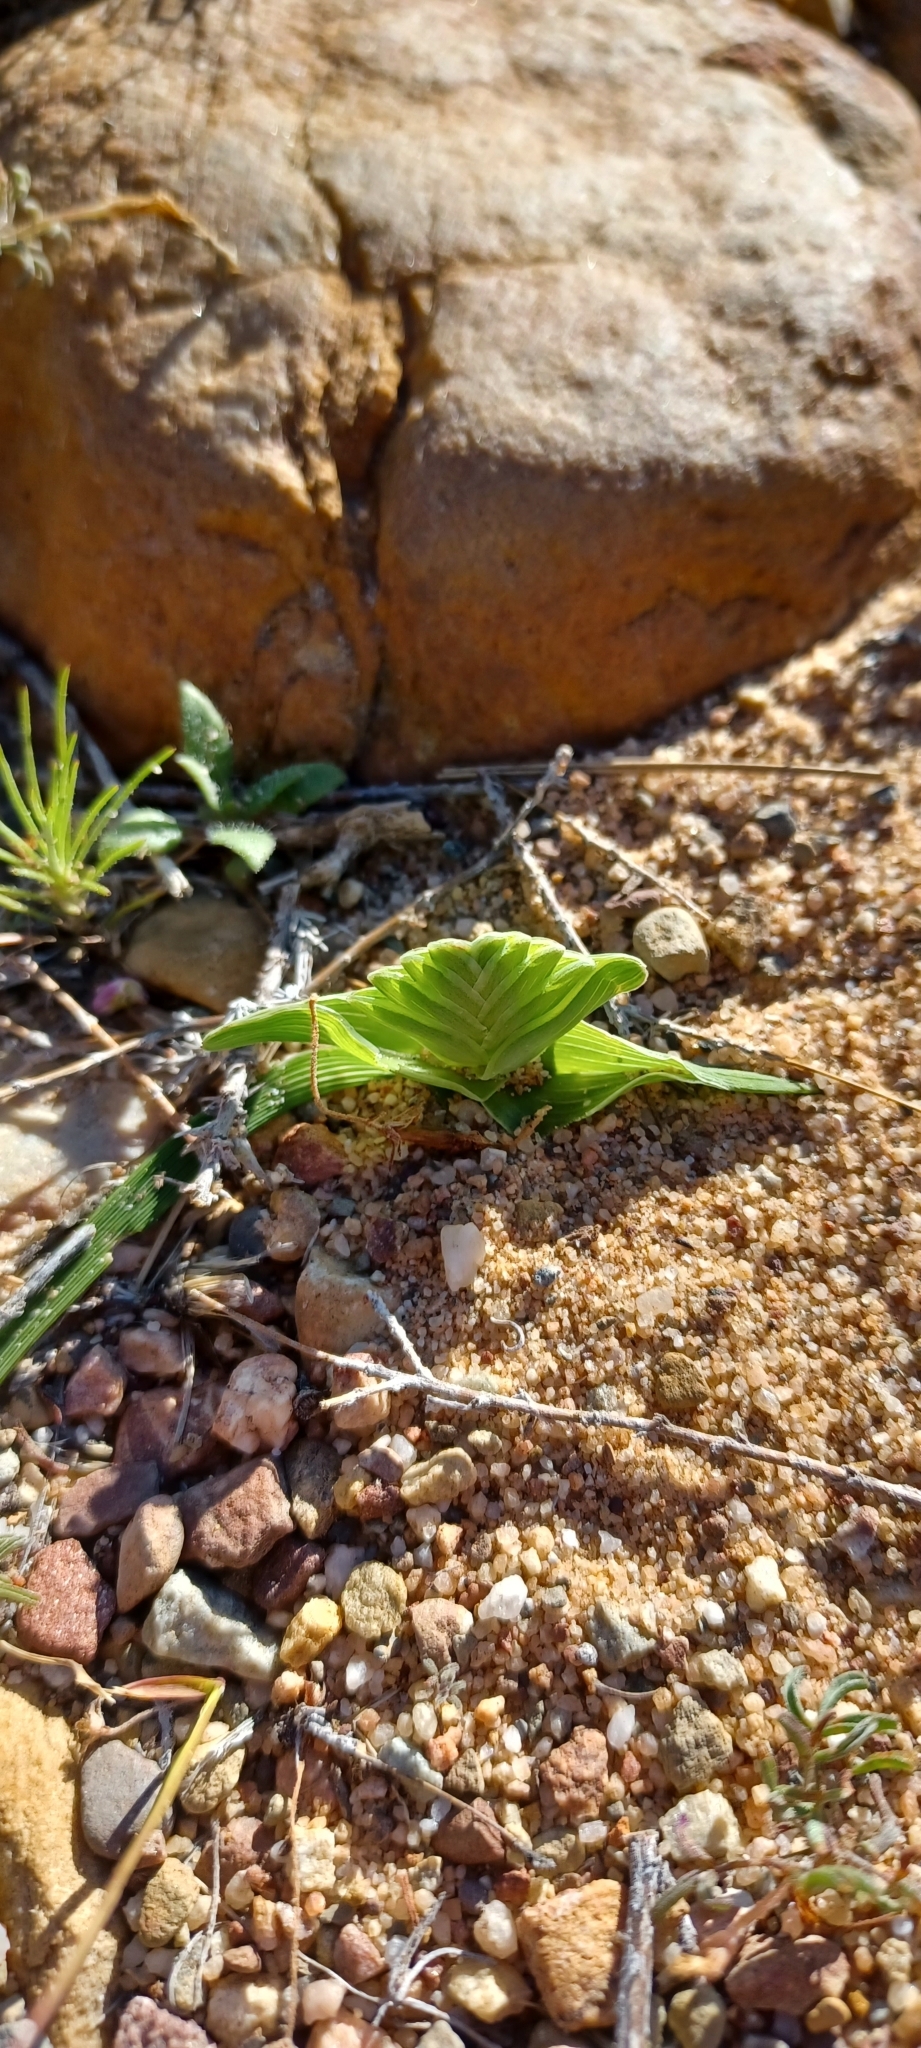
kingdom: Plantae
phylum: Tracheophyta
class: Liliopsida
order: Asparagales
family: Iridaceae
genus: Lapeirousia
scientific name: Lapeirousia pyramidalis
